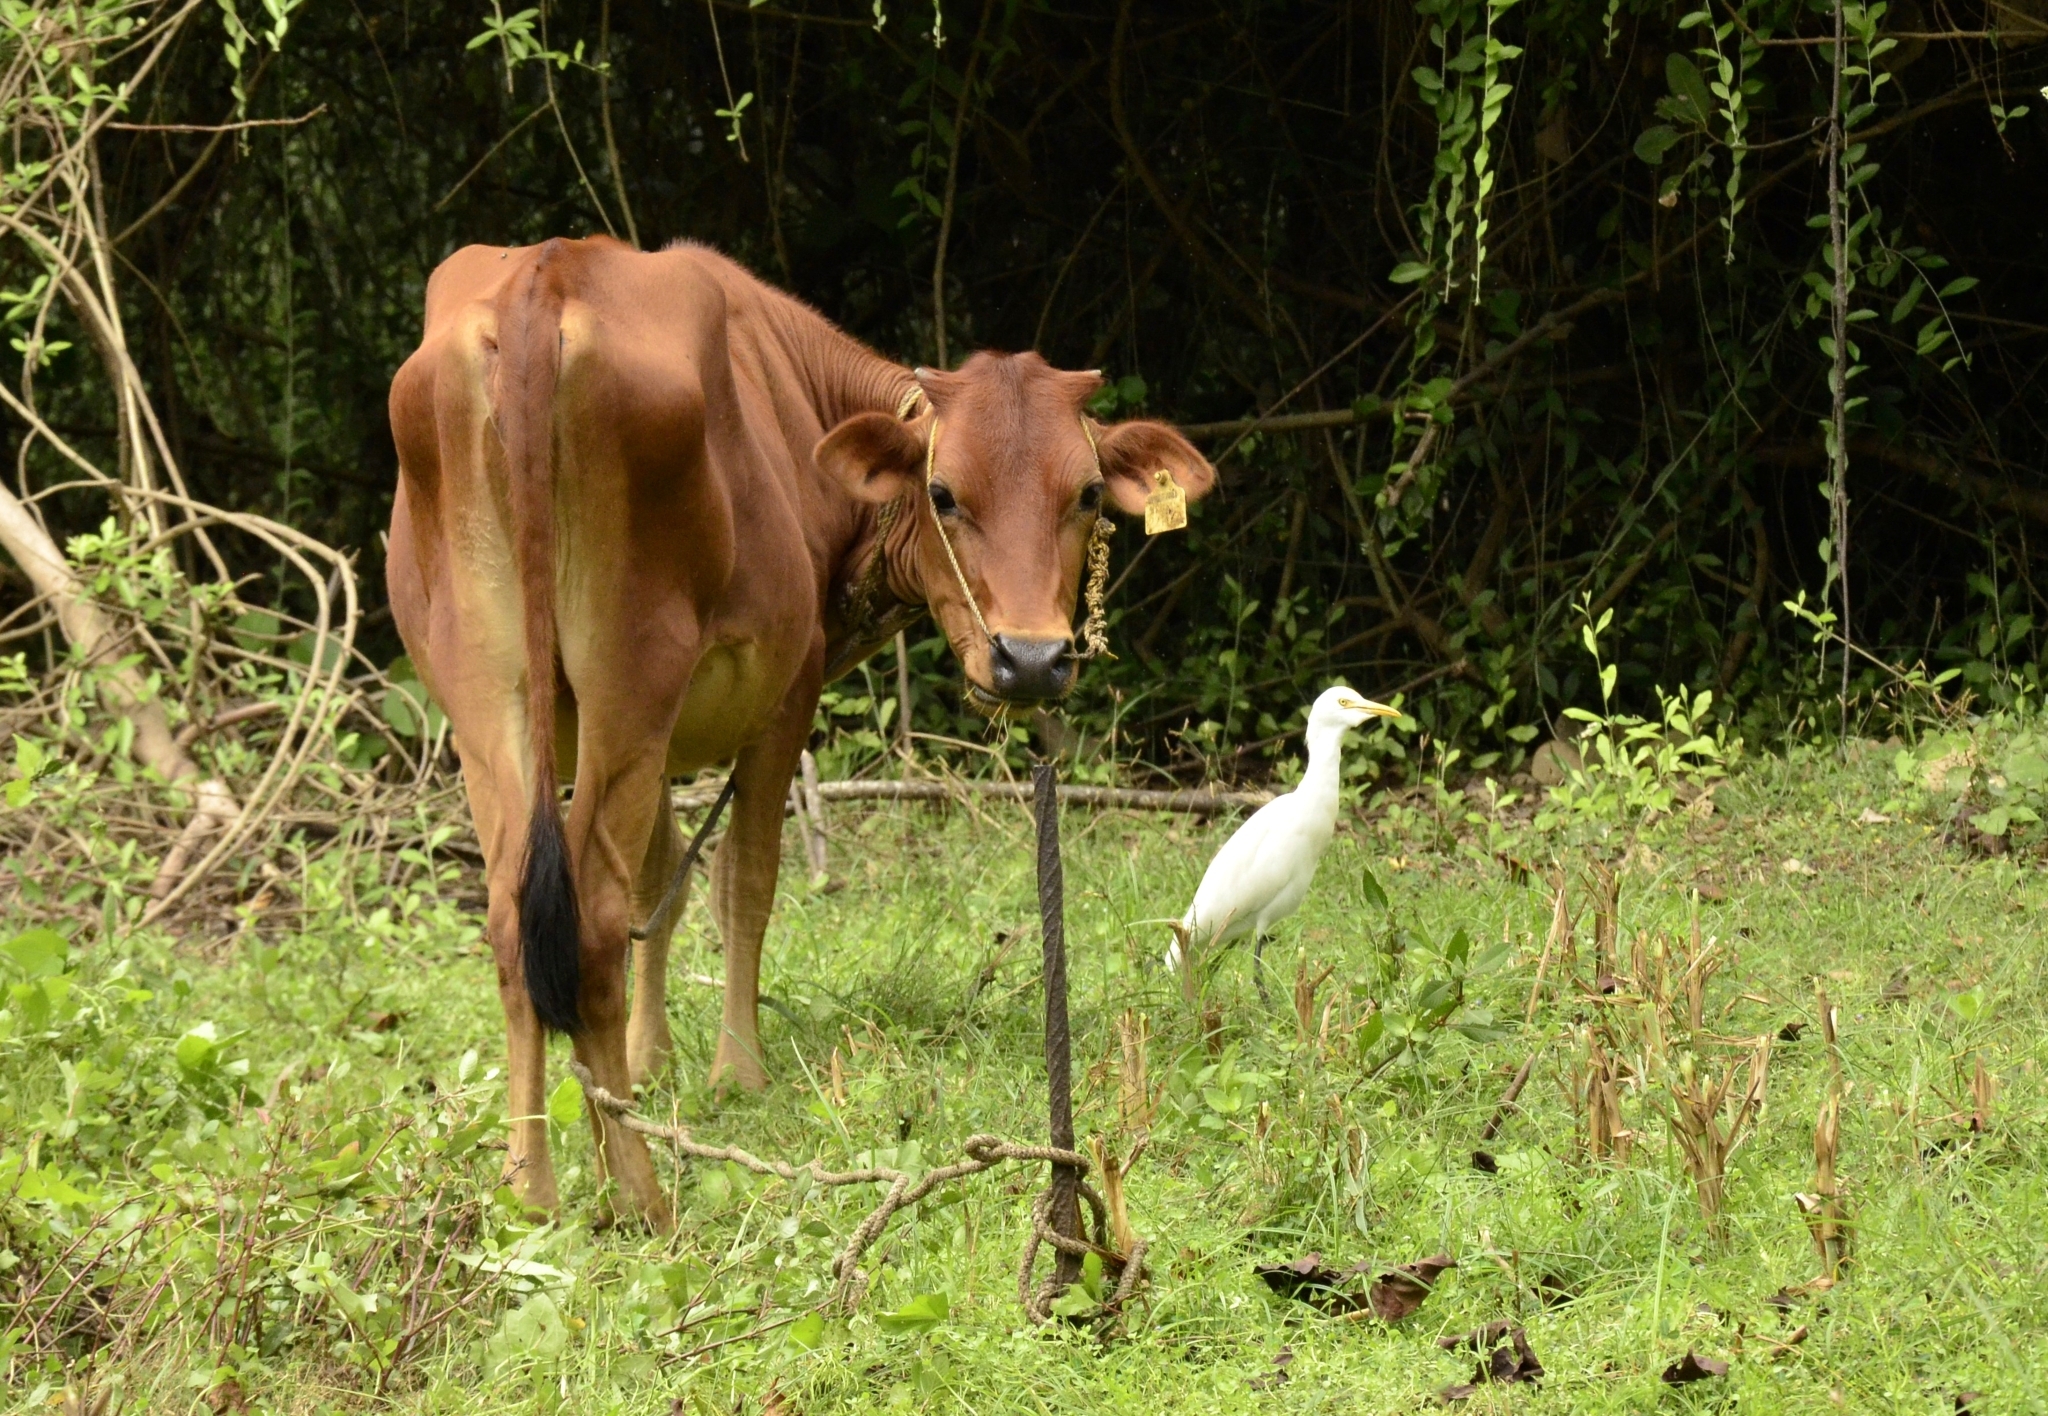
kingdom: Animalia
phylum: Chordata
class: Aves
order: Pelecaniformes
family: Ardeidae
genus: Bubulcus
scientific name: Bubulcus coromandus
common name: Eastern cattle egret
